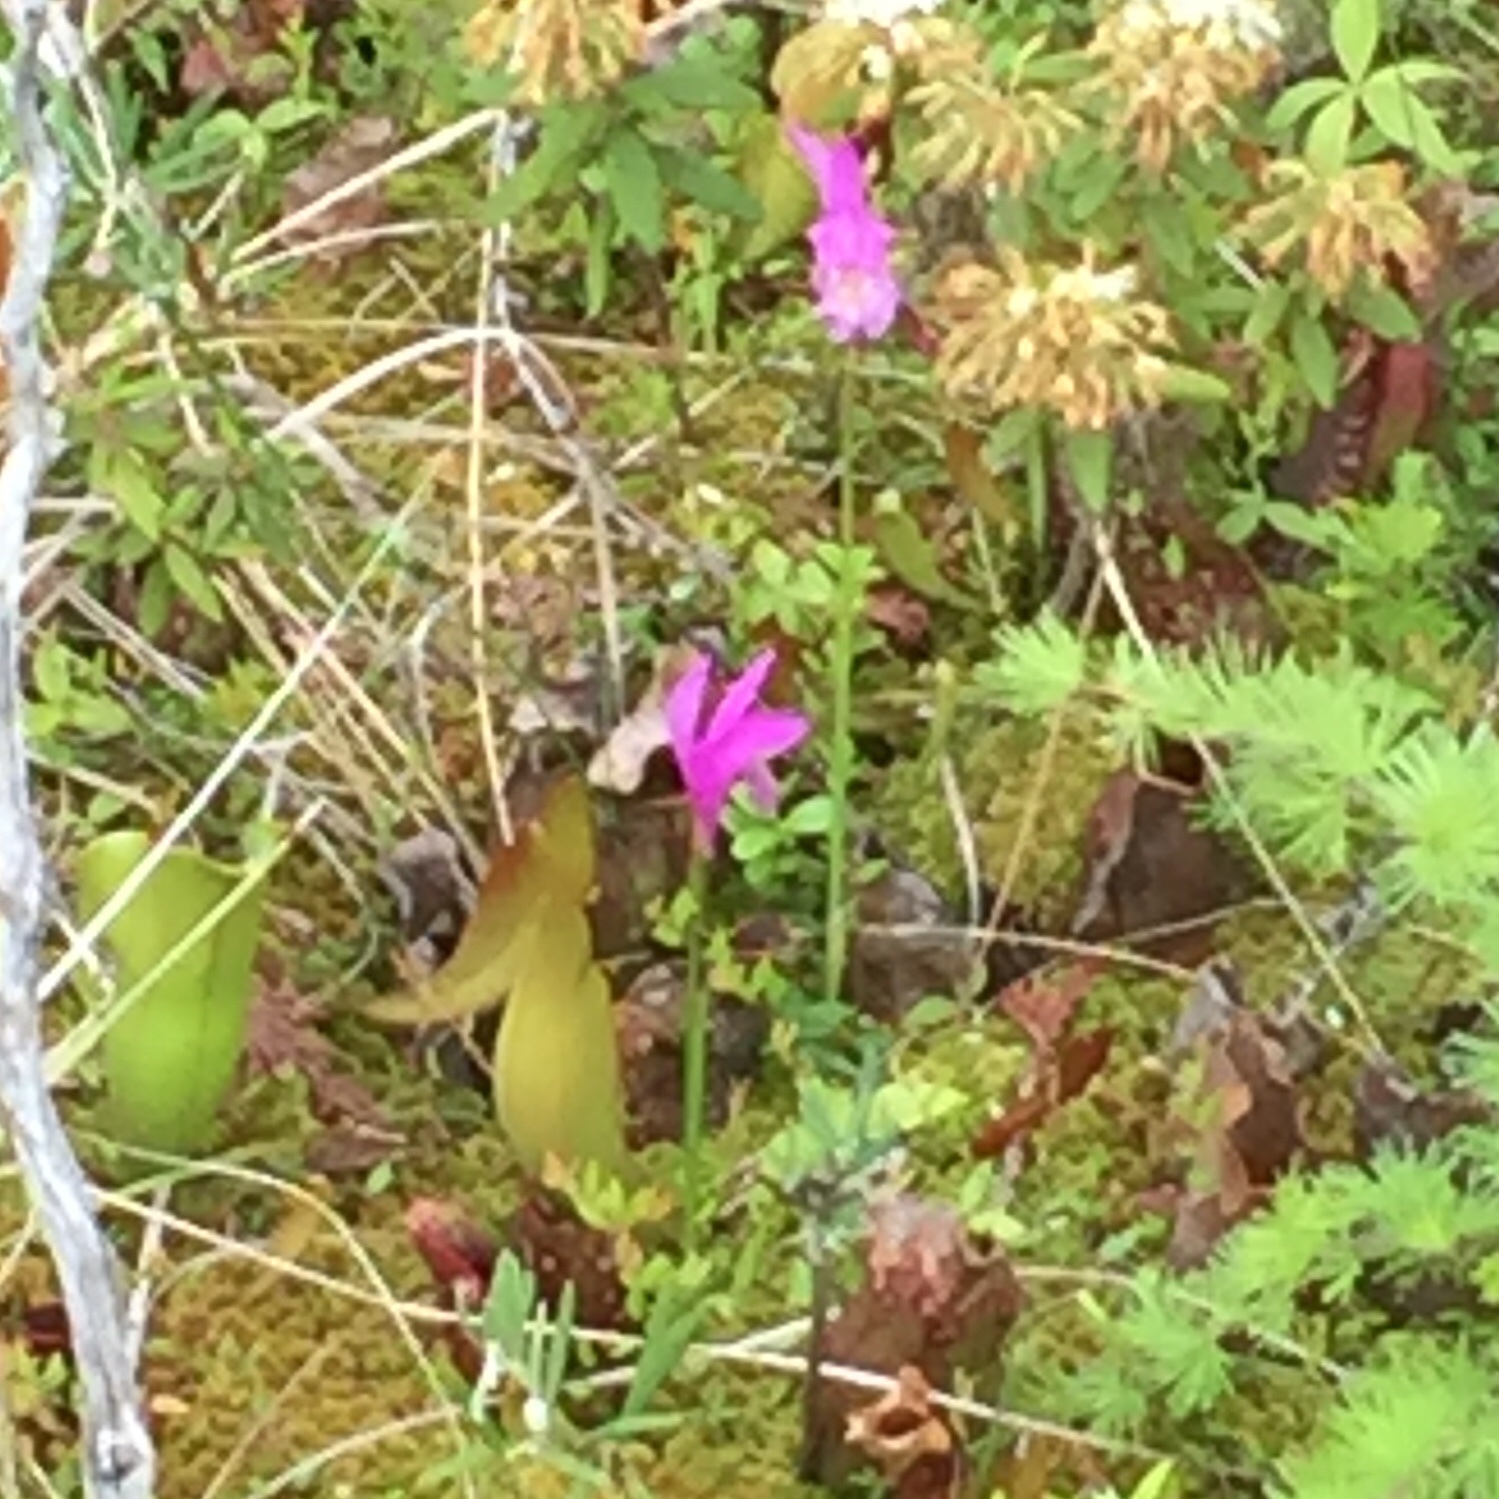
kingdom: Plantae
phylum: Tracheophyta
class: Liliopsida
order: Asparagales
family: Orchidaceae
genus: Arethusa
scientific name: Arethusa bulbosa
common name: Arethusa
